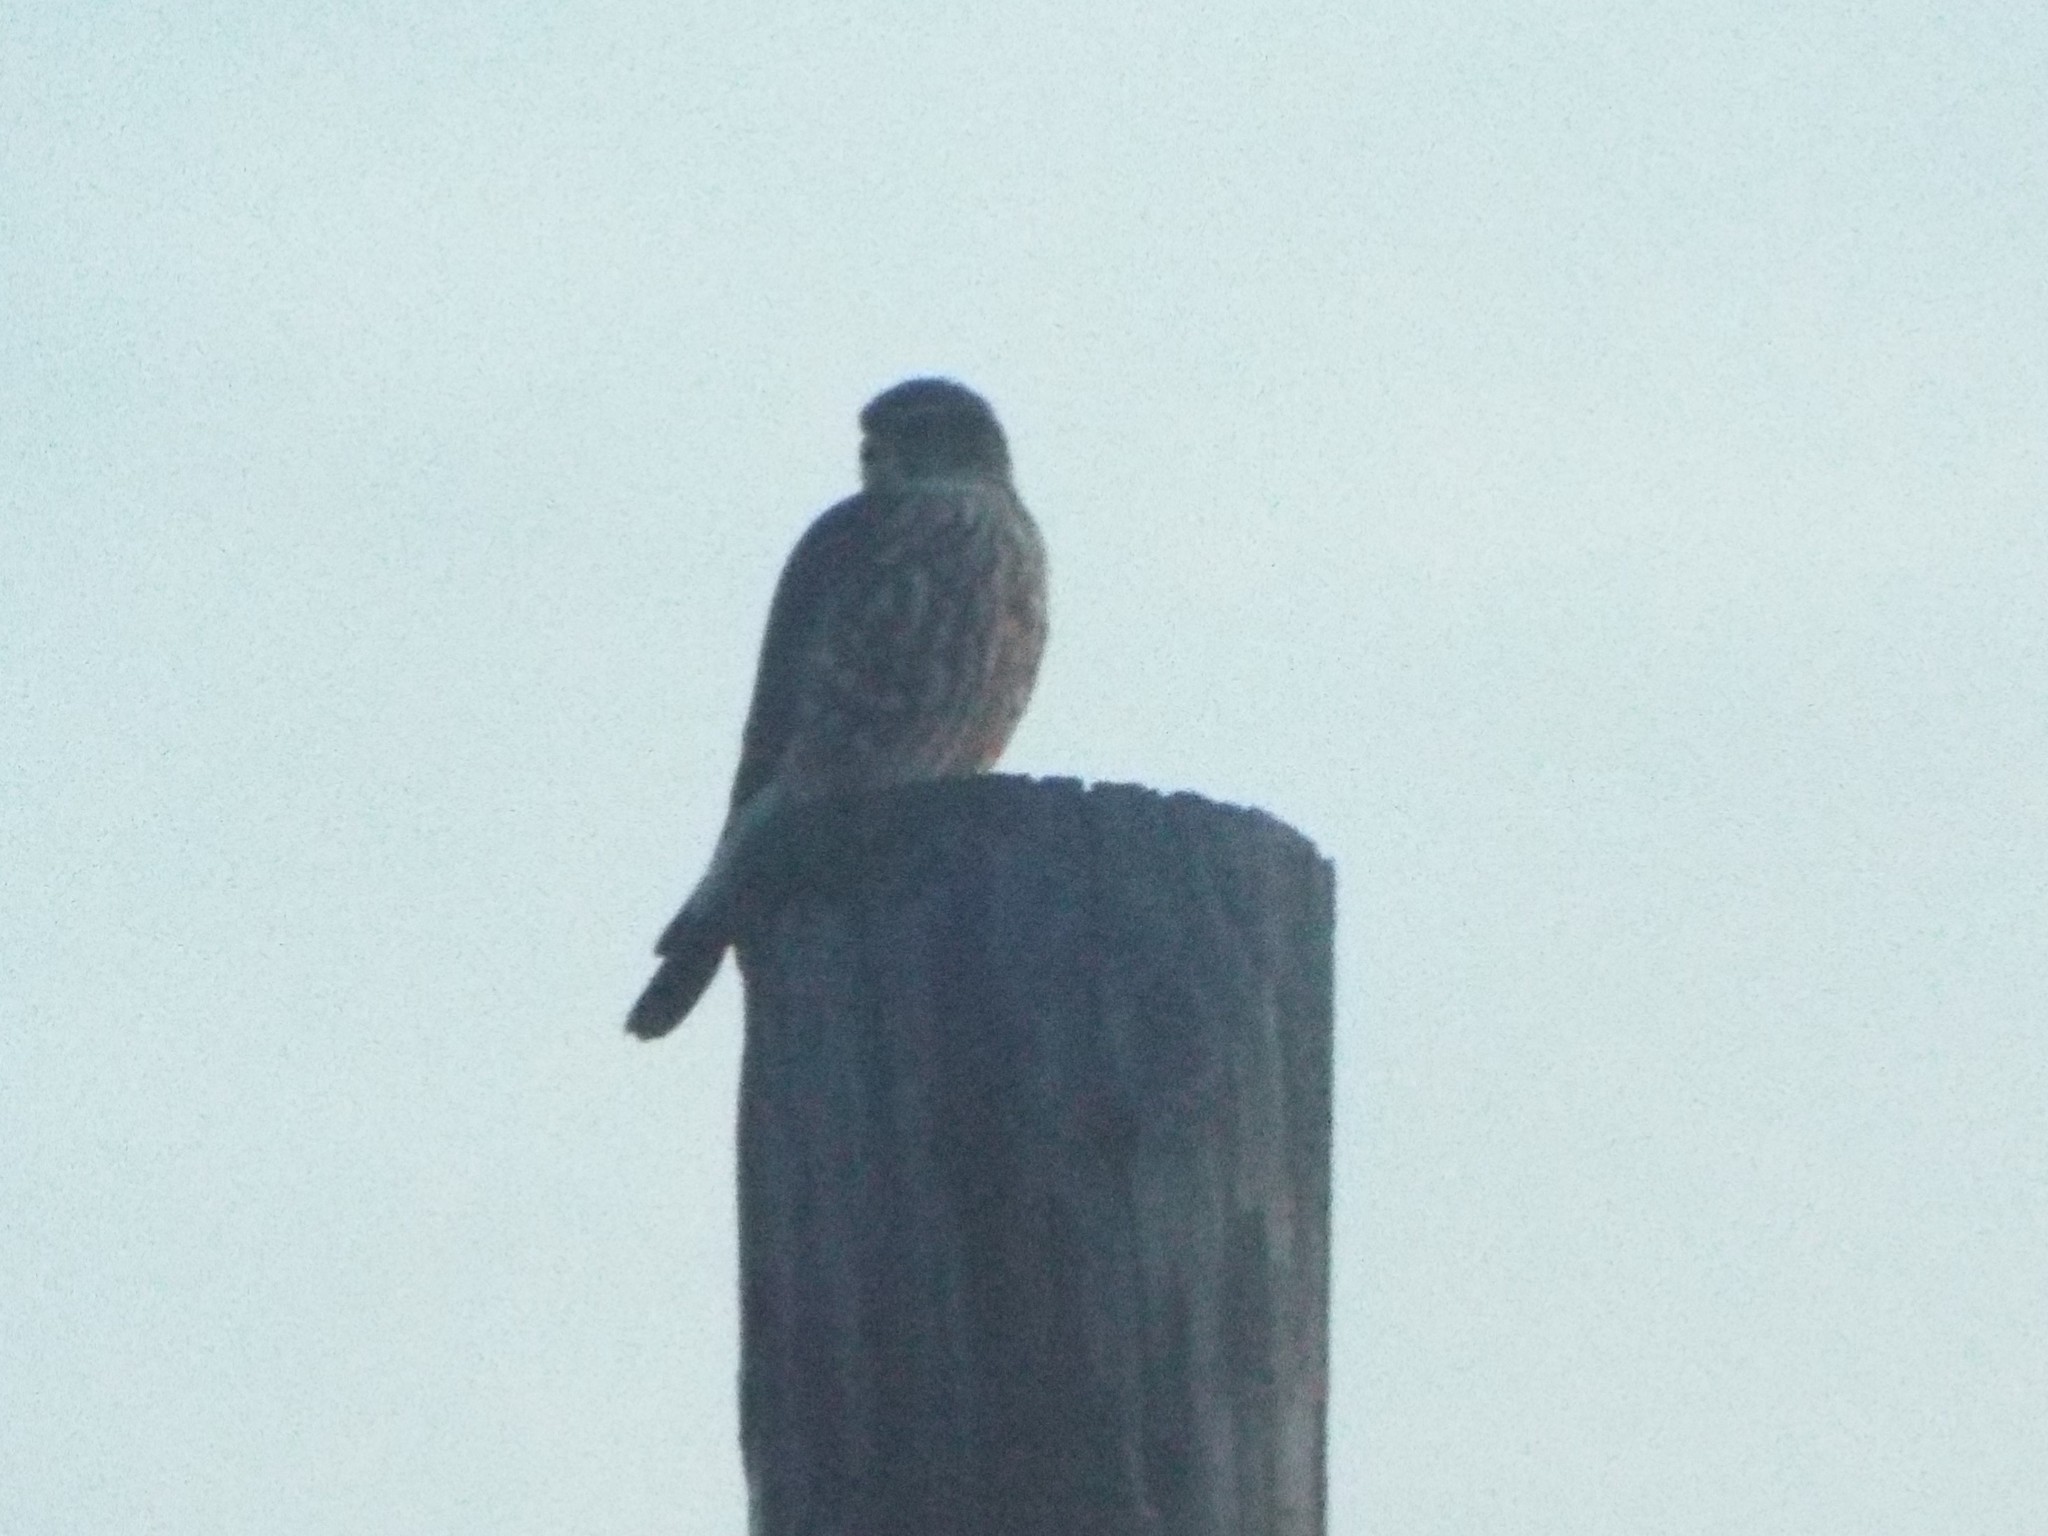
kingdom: Animalia
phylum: Chordata
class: Aves
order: Falconiformes
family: Falconidae
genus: Falco
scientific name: Falco columbarius
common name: Merlin
